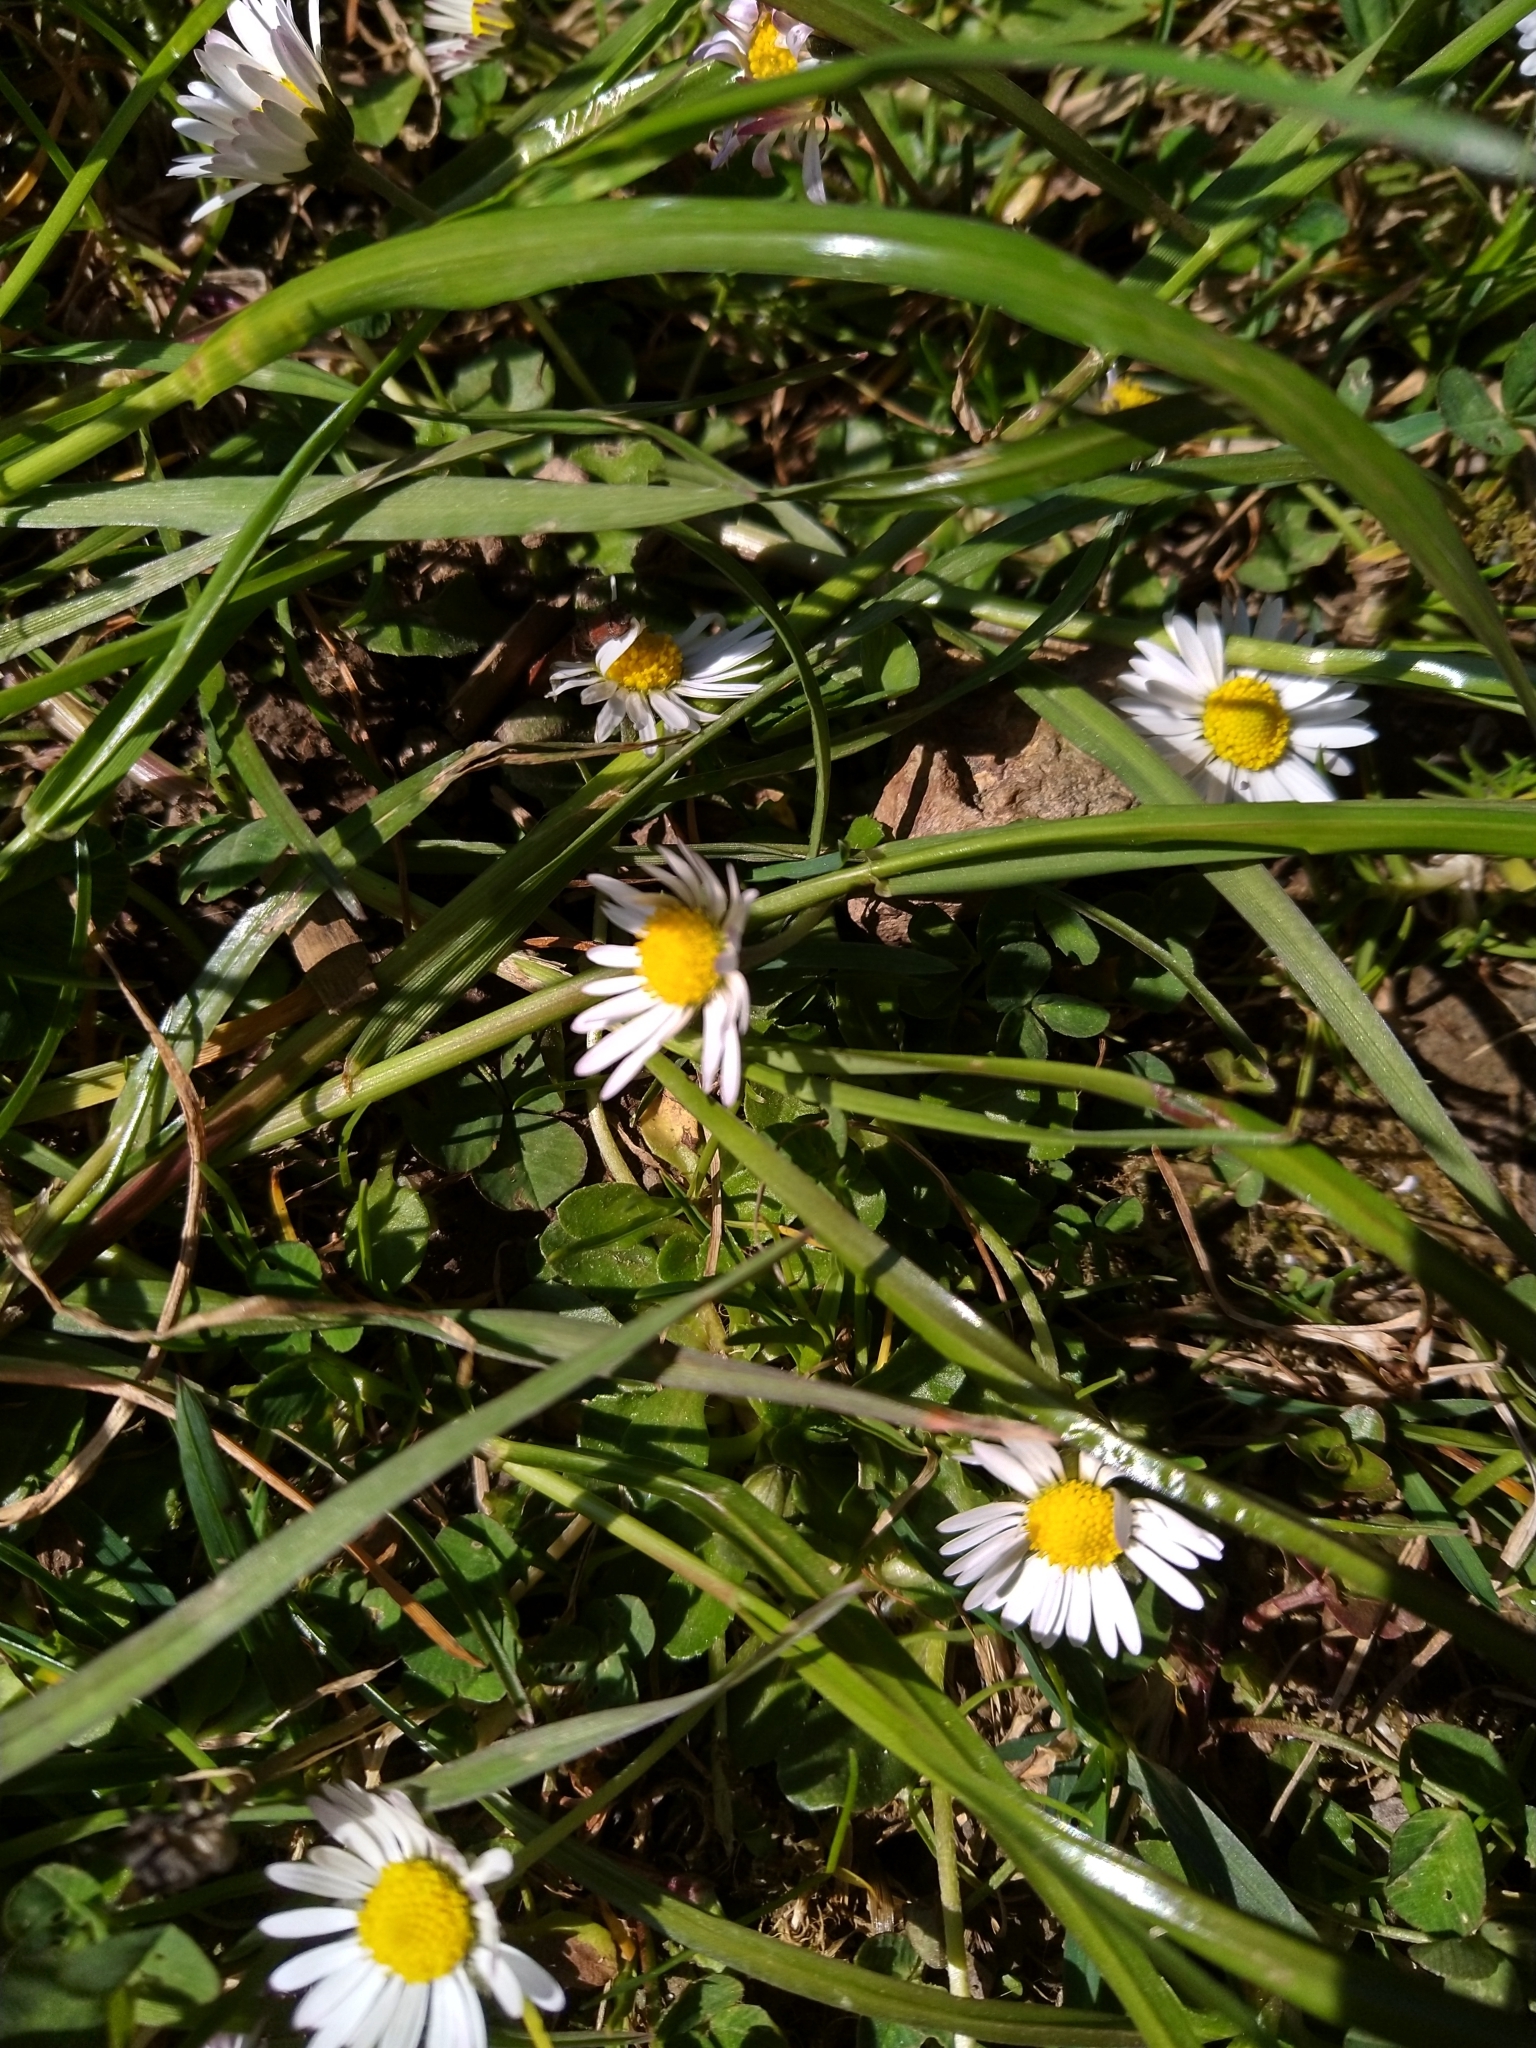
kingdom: Plantae
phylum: Tracheophyta
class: Magnoliopsida
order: Asterales
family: Asteraceae
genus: Bellis
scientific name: Bellis perennis
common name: Lawndaisy
